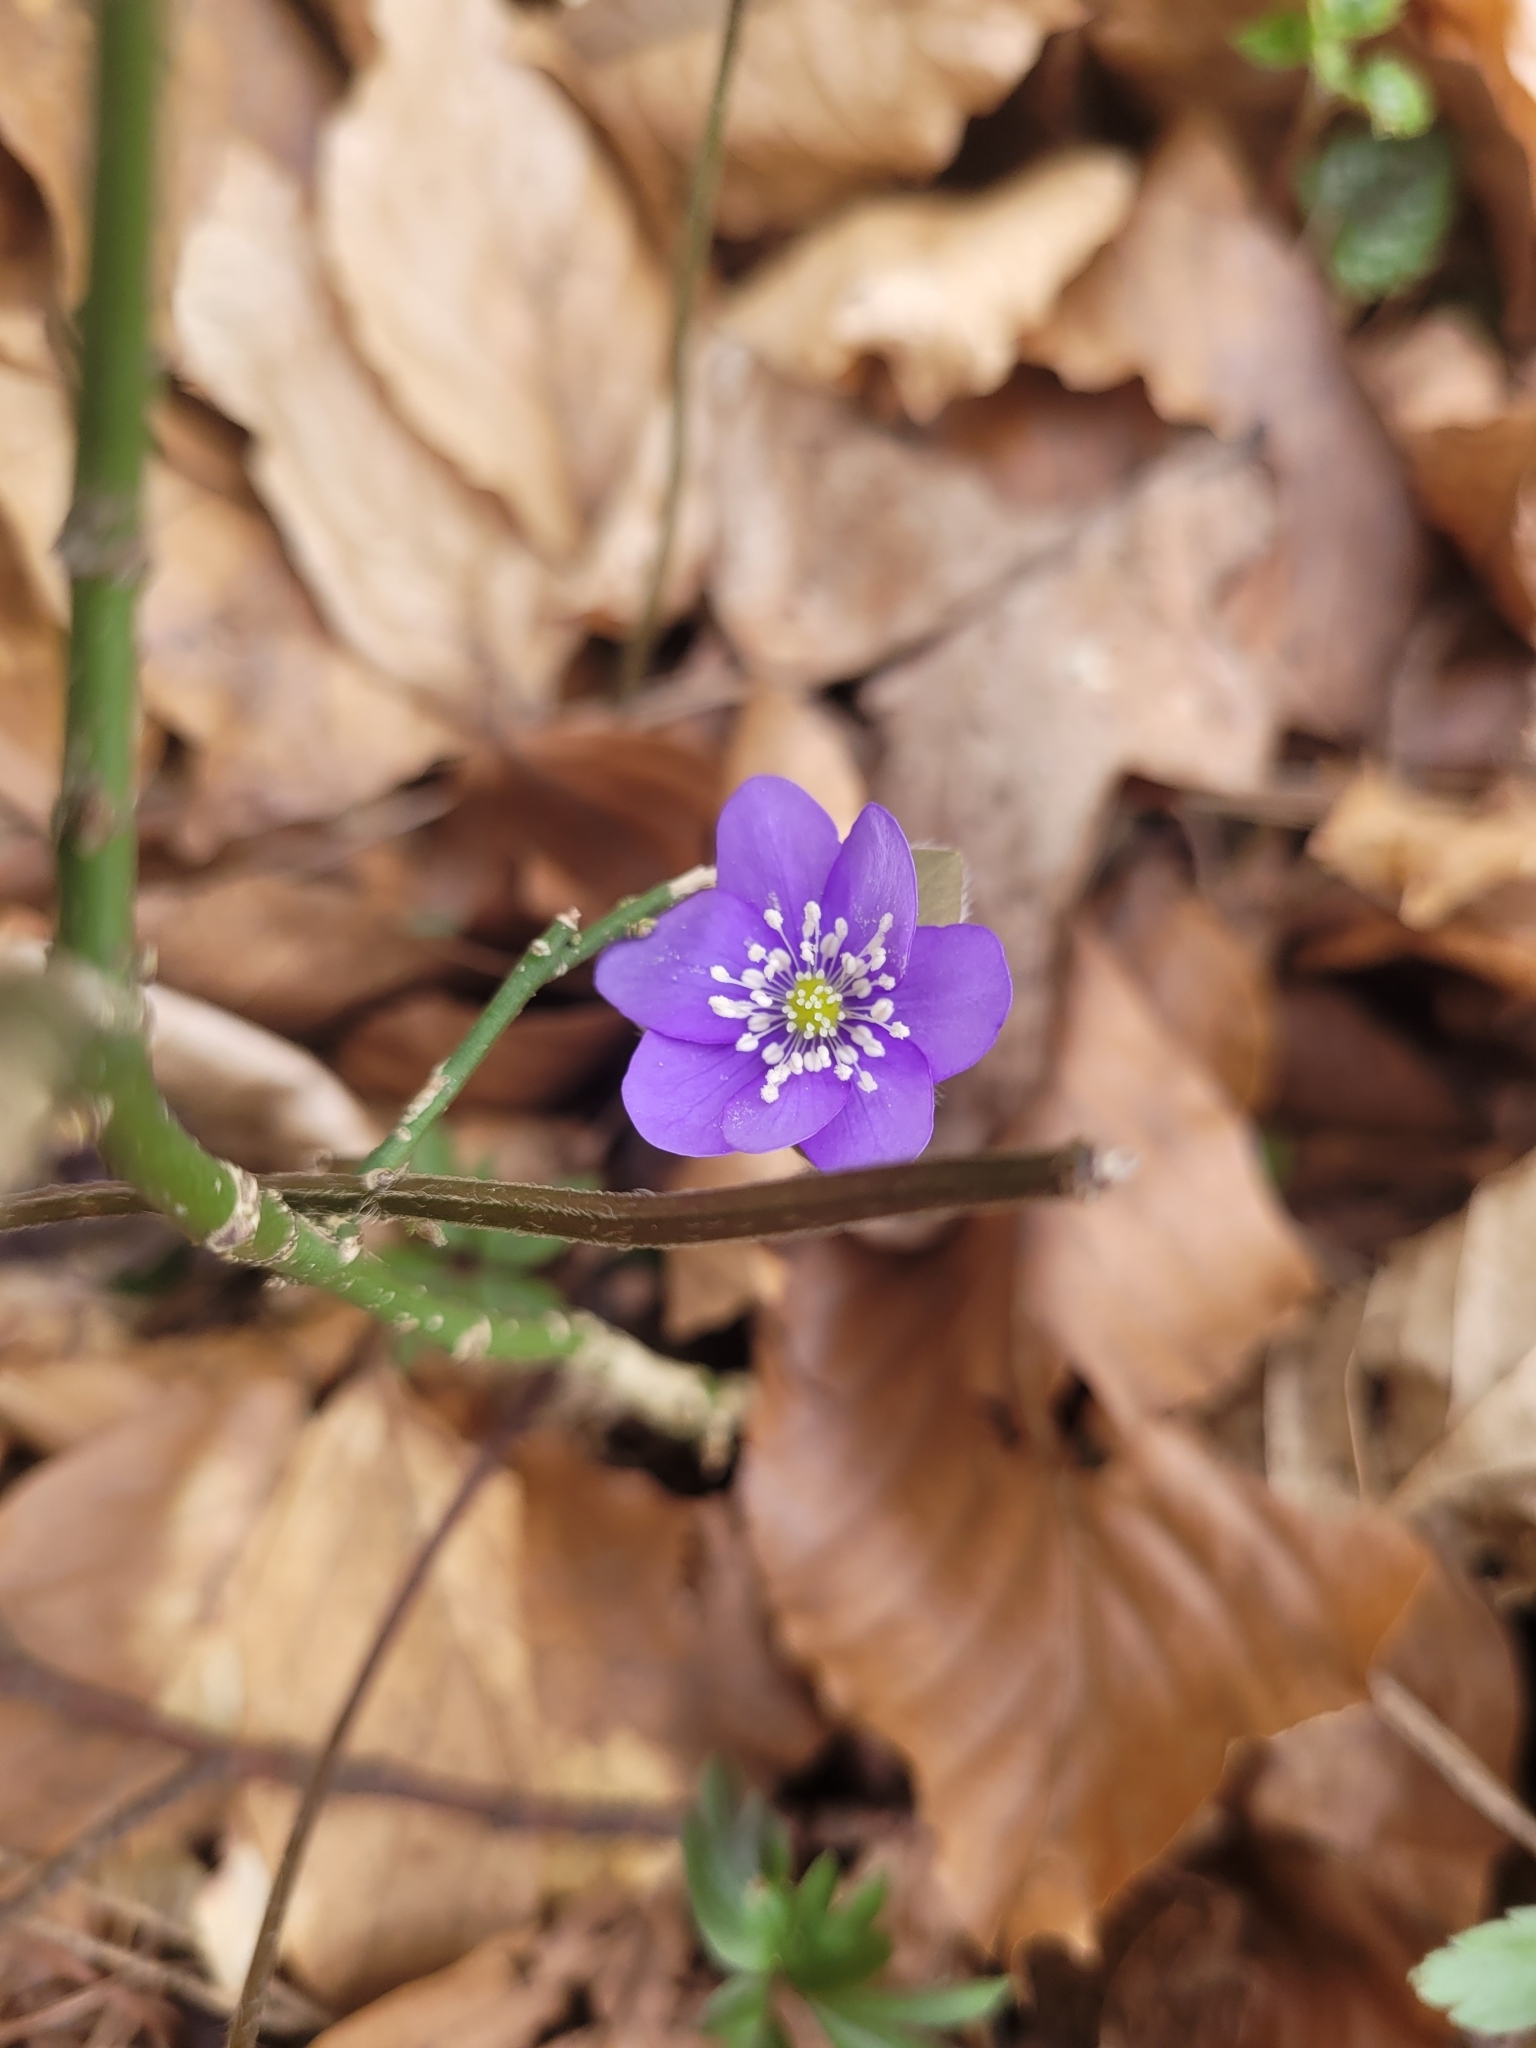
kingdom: Plantae
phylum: Tracheophyta
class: Magnoliopsida
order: Ranunculales
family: Ranunculaceae
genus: Hepatica
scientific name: Hepatica nobilis
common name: Liverleaf
